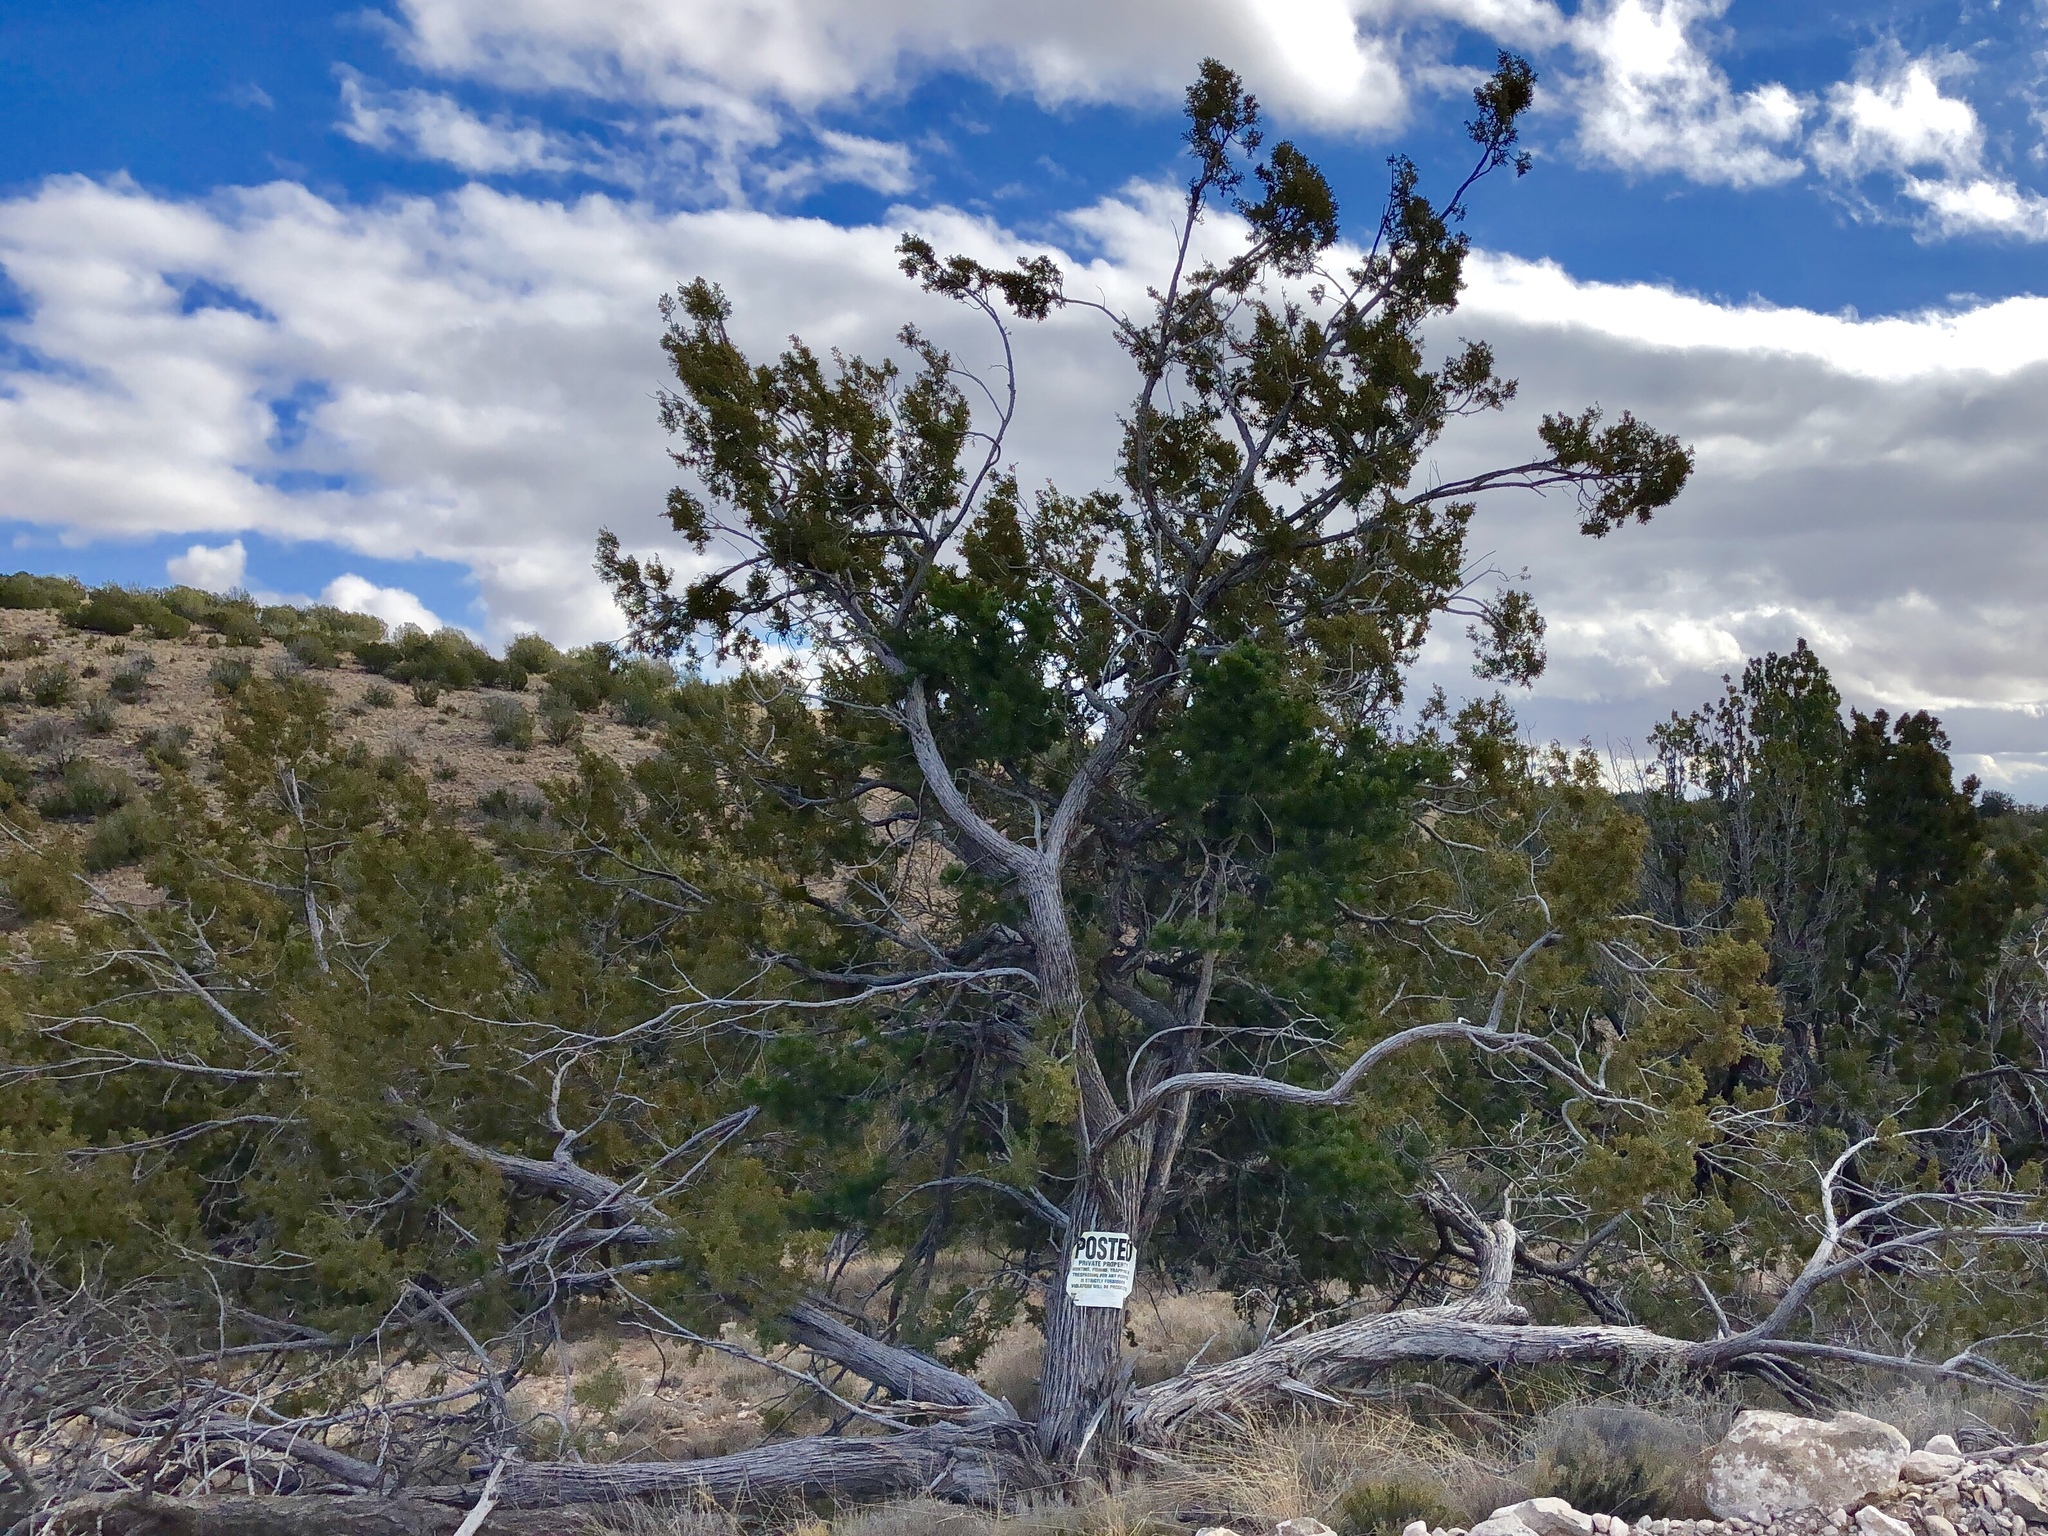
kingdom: Plantae
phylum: Tracheophyta
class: Pinopsida
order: Pinales
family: Cupressaceae
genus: Juniperus
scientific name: Juniperus monosperma
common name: One-seed juniper
